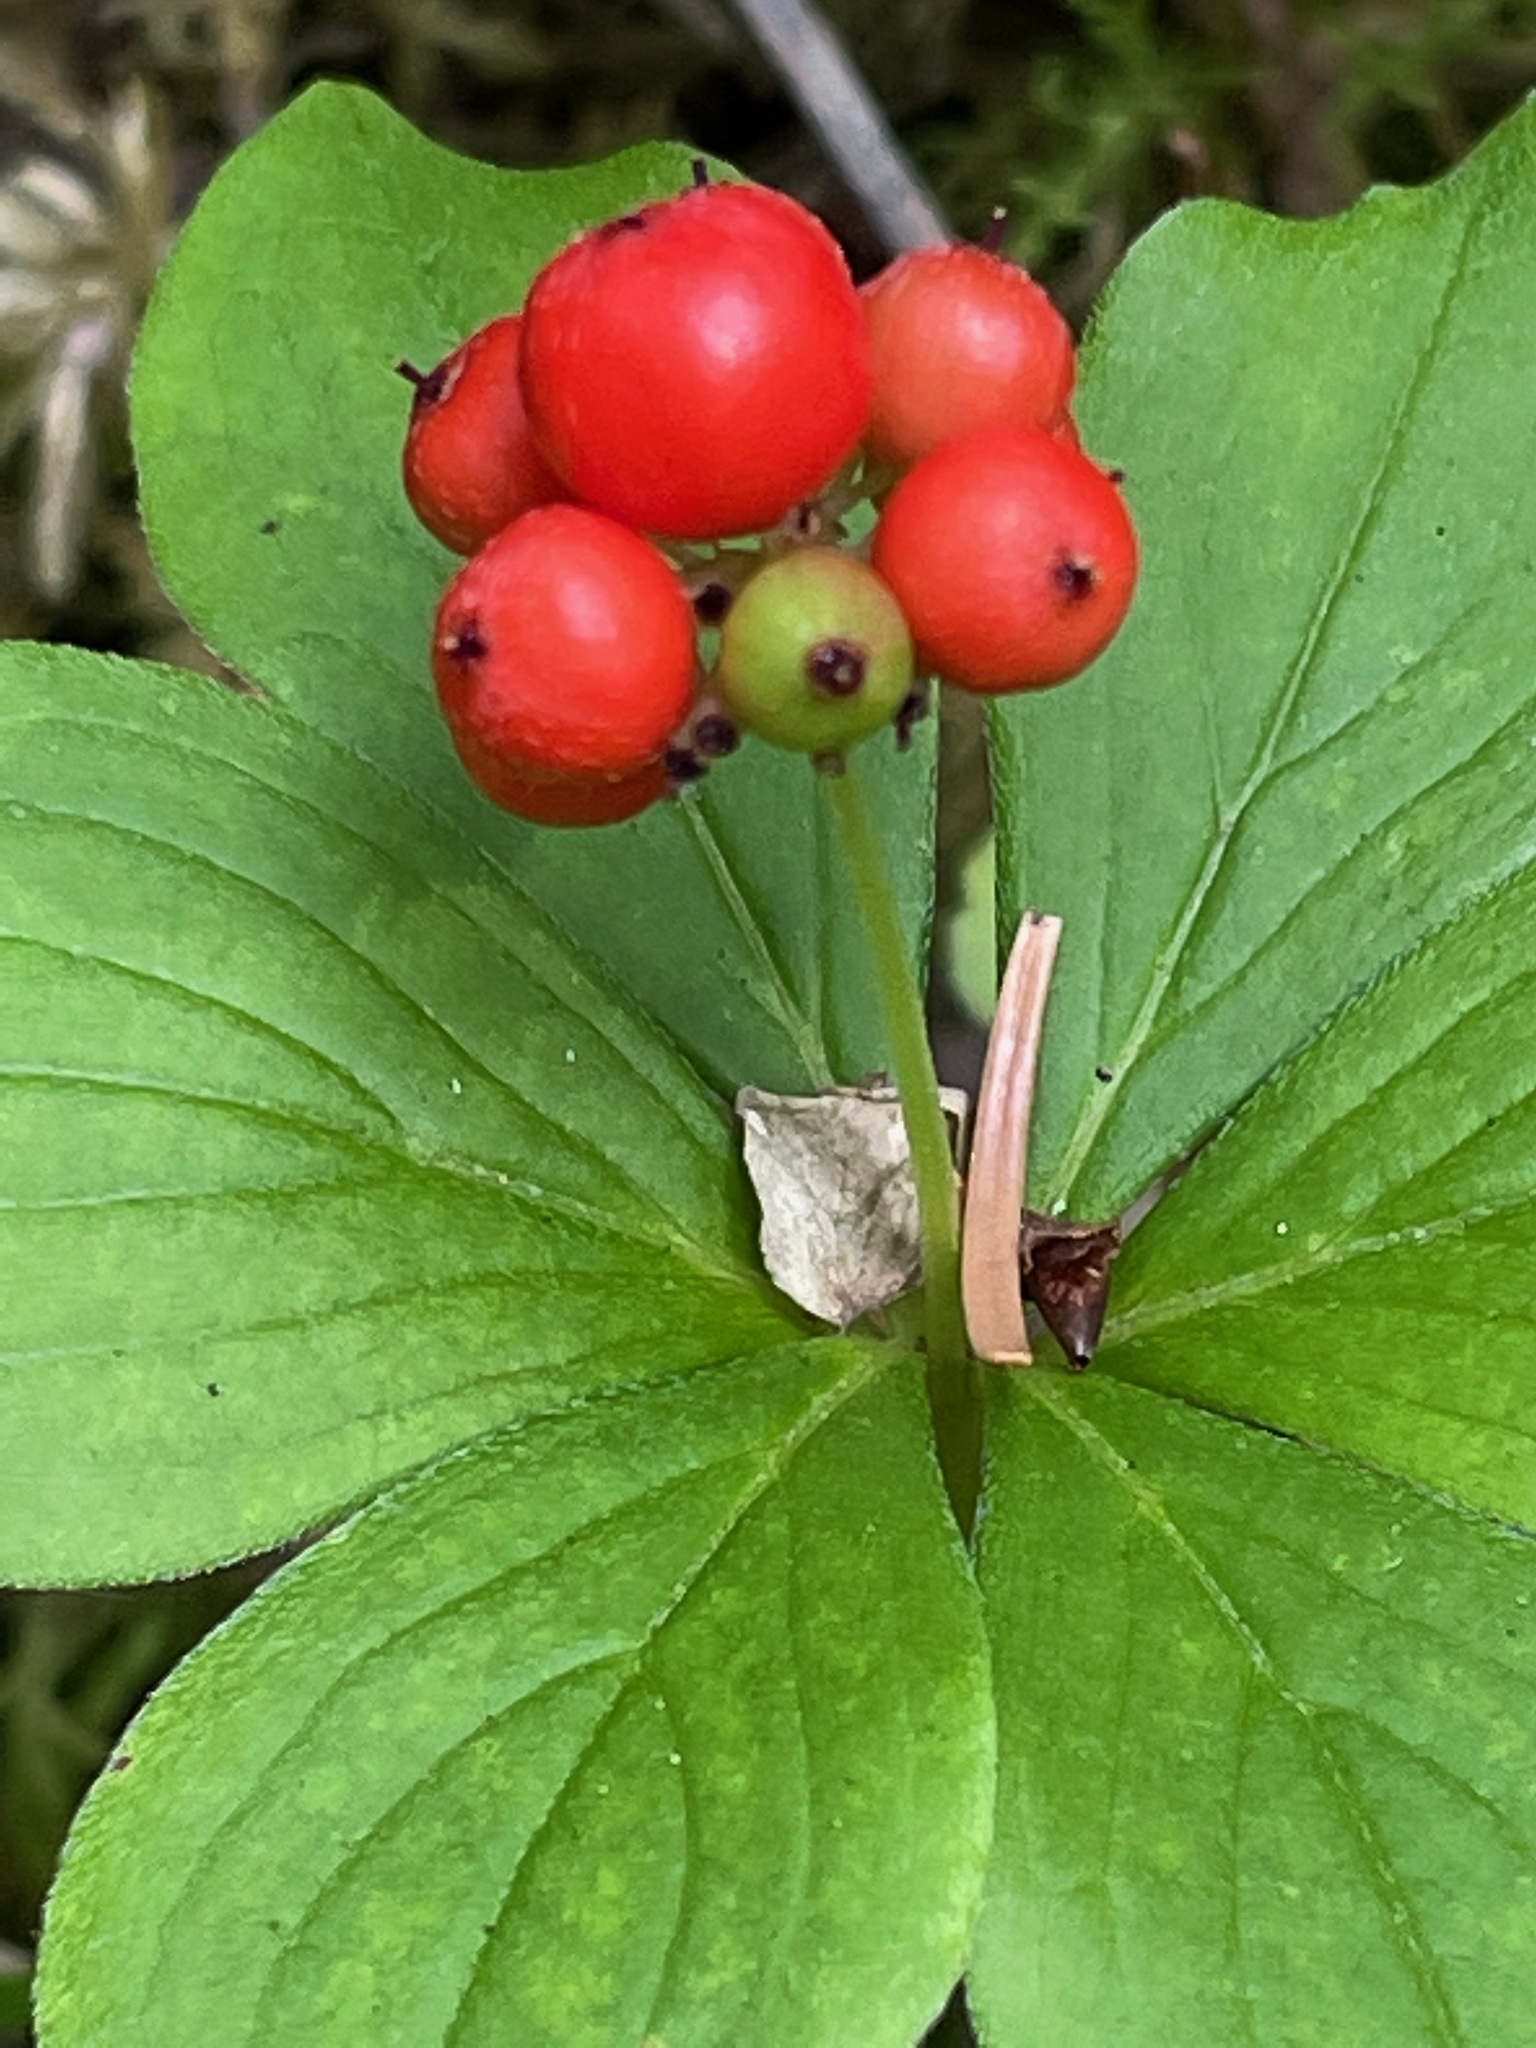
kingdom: Plantae
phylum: Tracheophyta
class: Magnoliopsida
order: Cornales
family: Cornaceae
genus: Cornus
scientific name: Cornus canadensis
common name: Creeping dogwood
